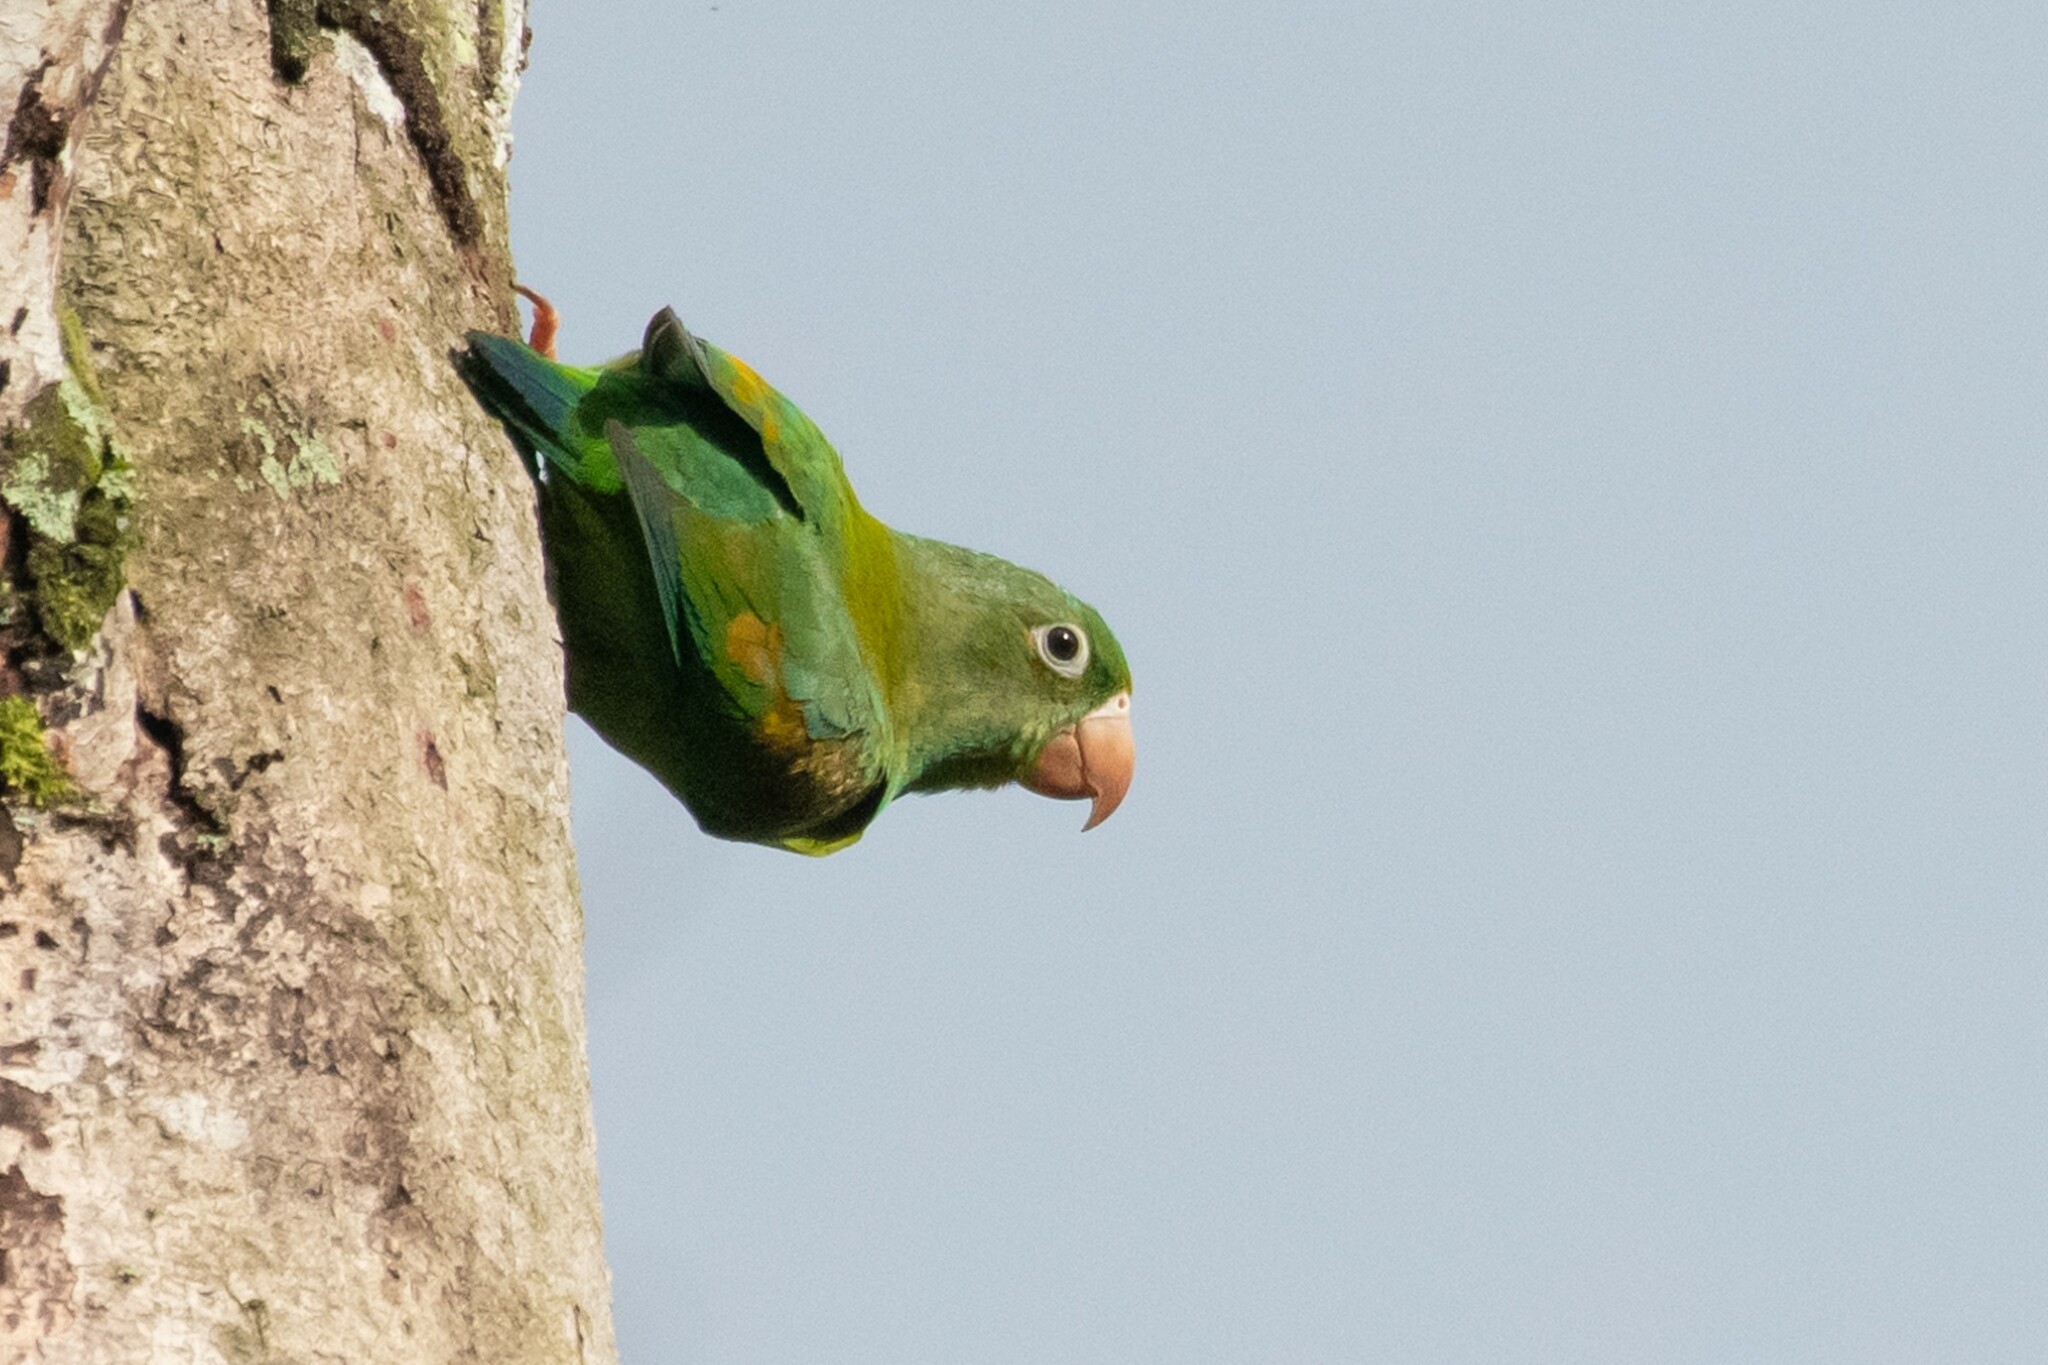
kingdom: Animalia
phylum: Chordata
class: Aves
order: Psittaciformes
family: Psittacidae
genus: Brotogeris
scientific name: Brotogeris jugularis
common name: Orange-chinned parakeet
